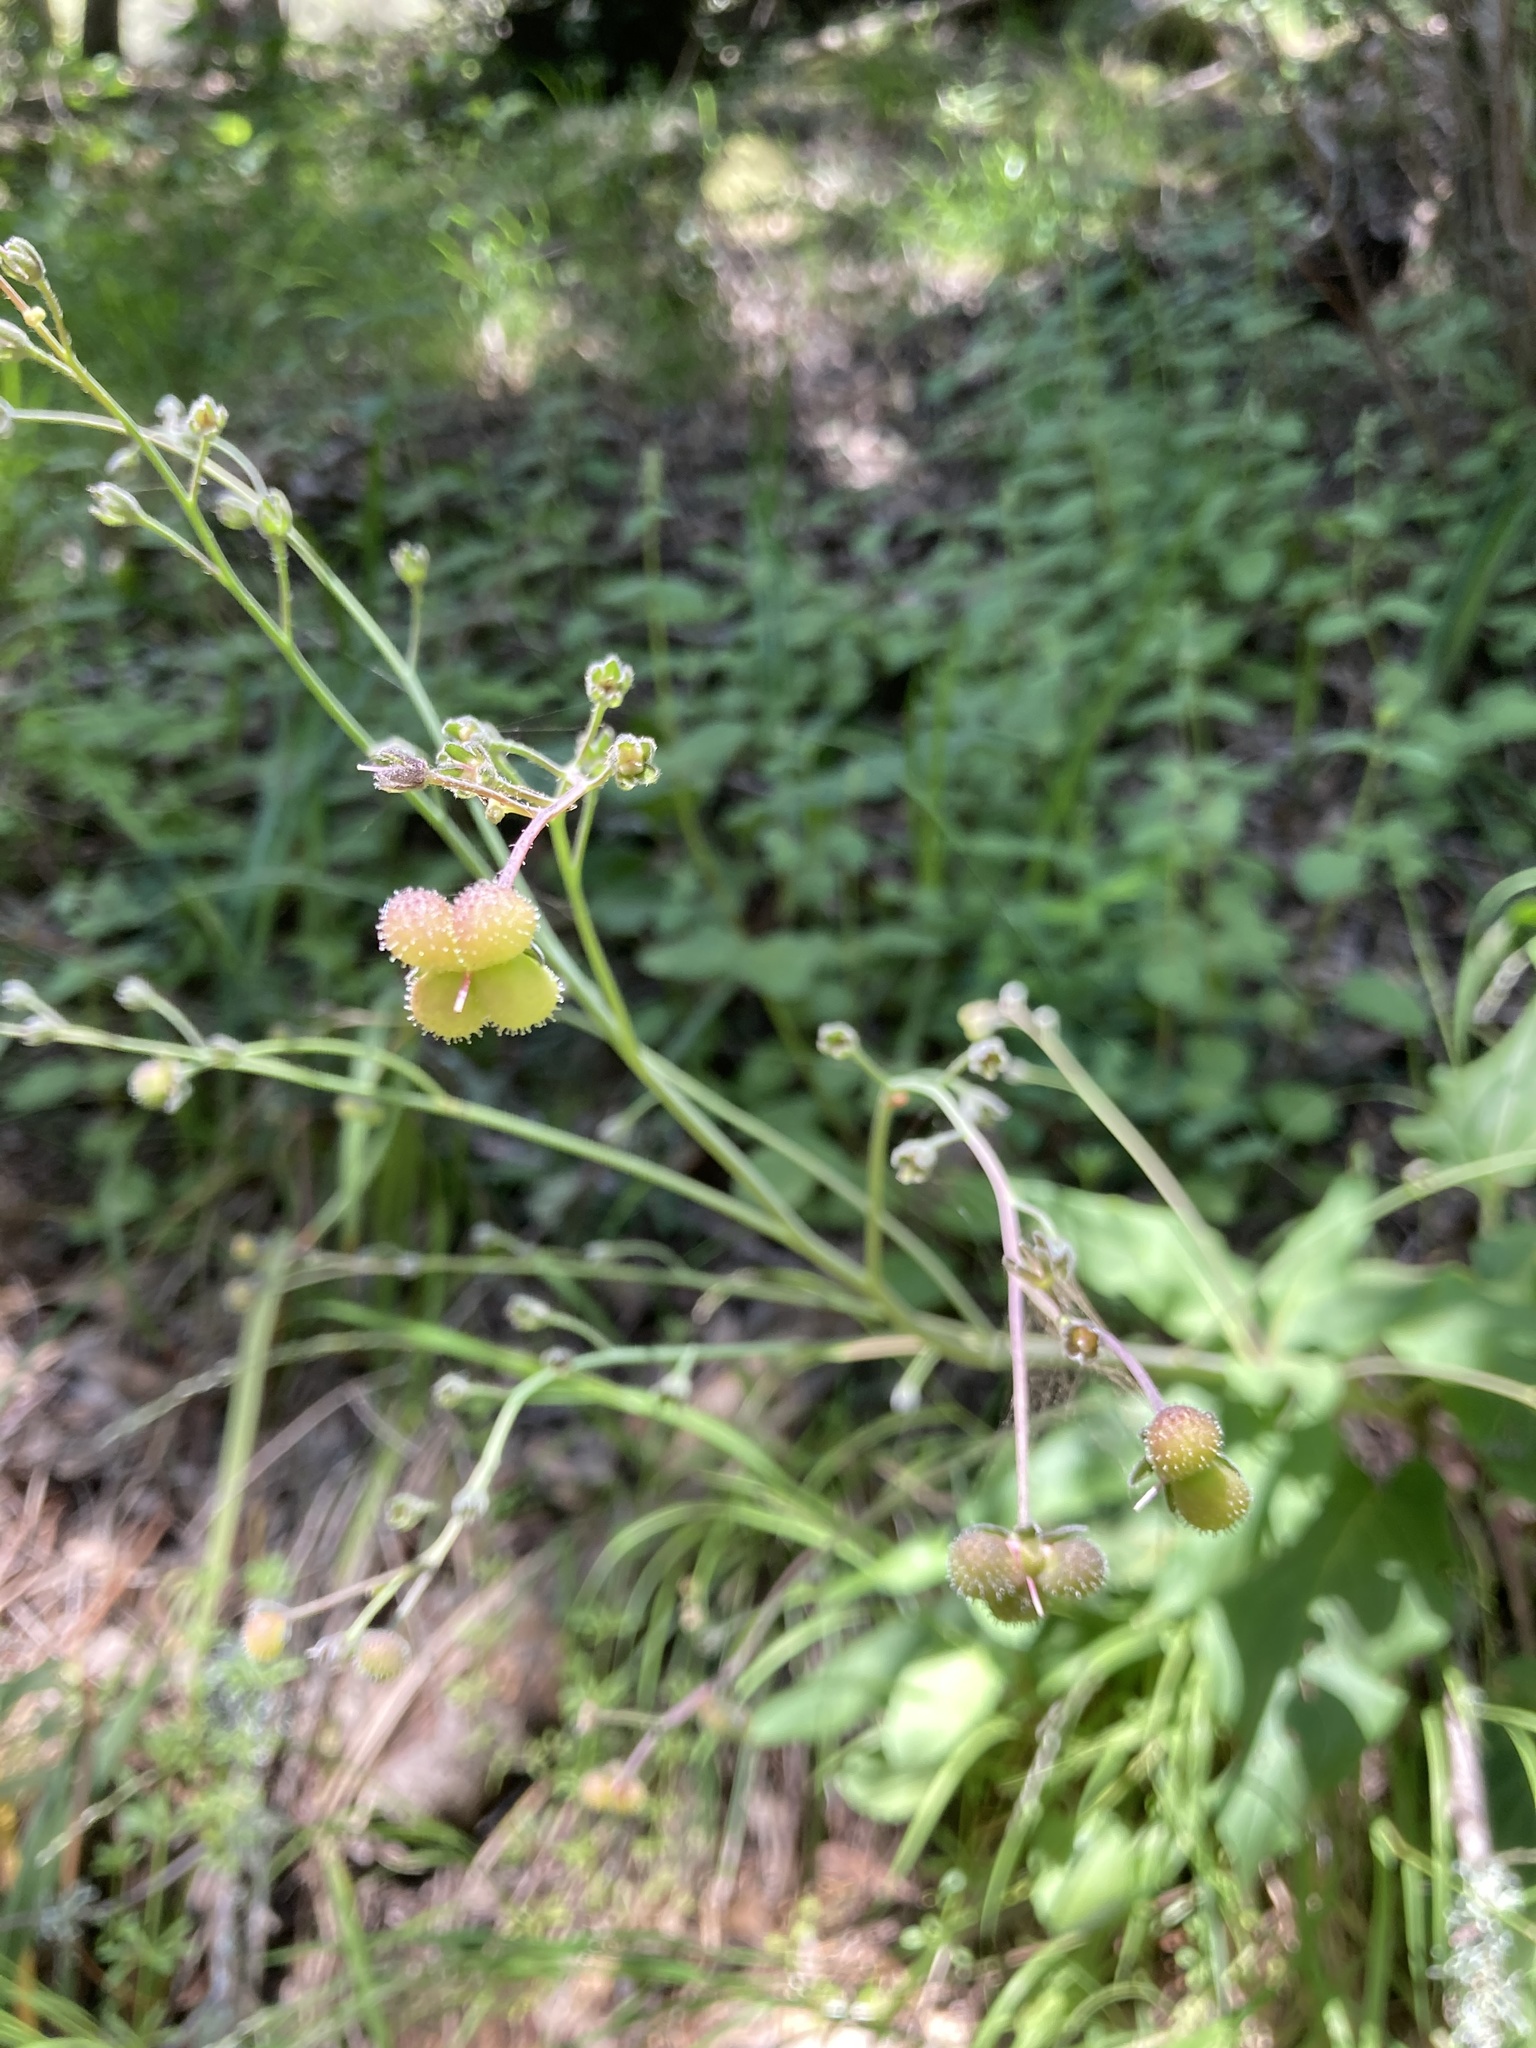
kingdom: Plantae
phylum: Tracheophyta
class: Magnoliopsida
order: Boraginales
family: Boraginaceae
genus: Adelinia
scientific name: Adelinia grande
